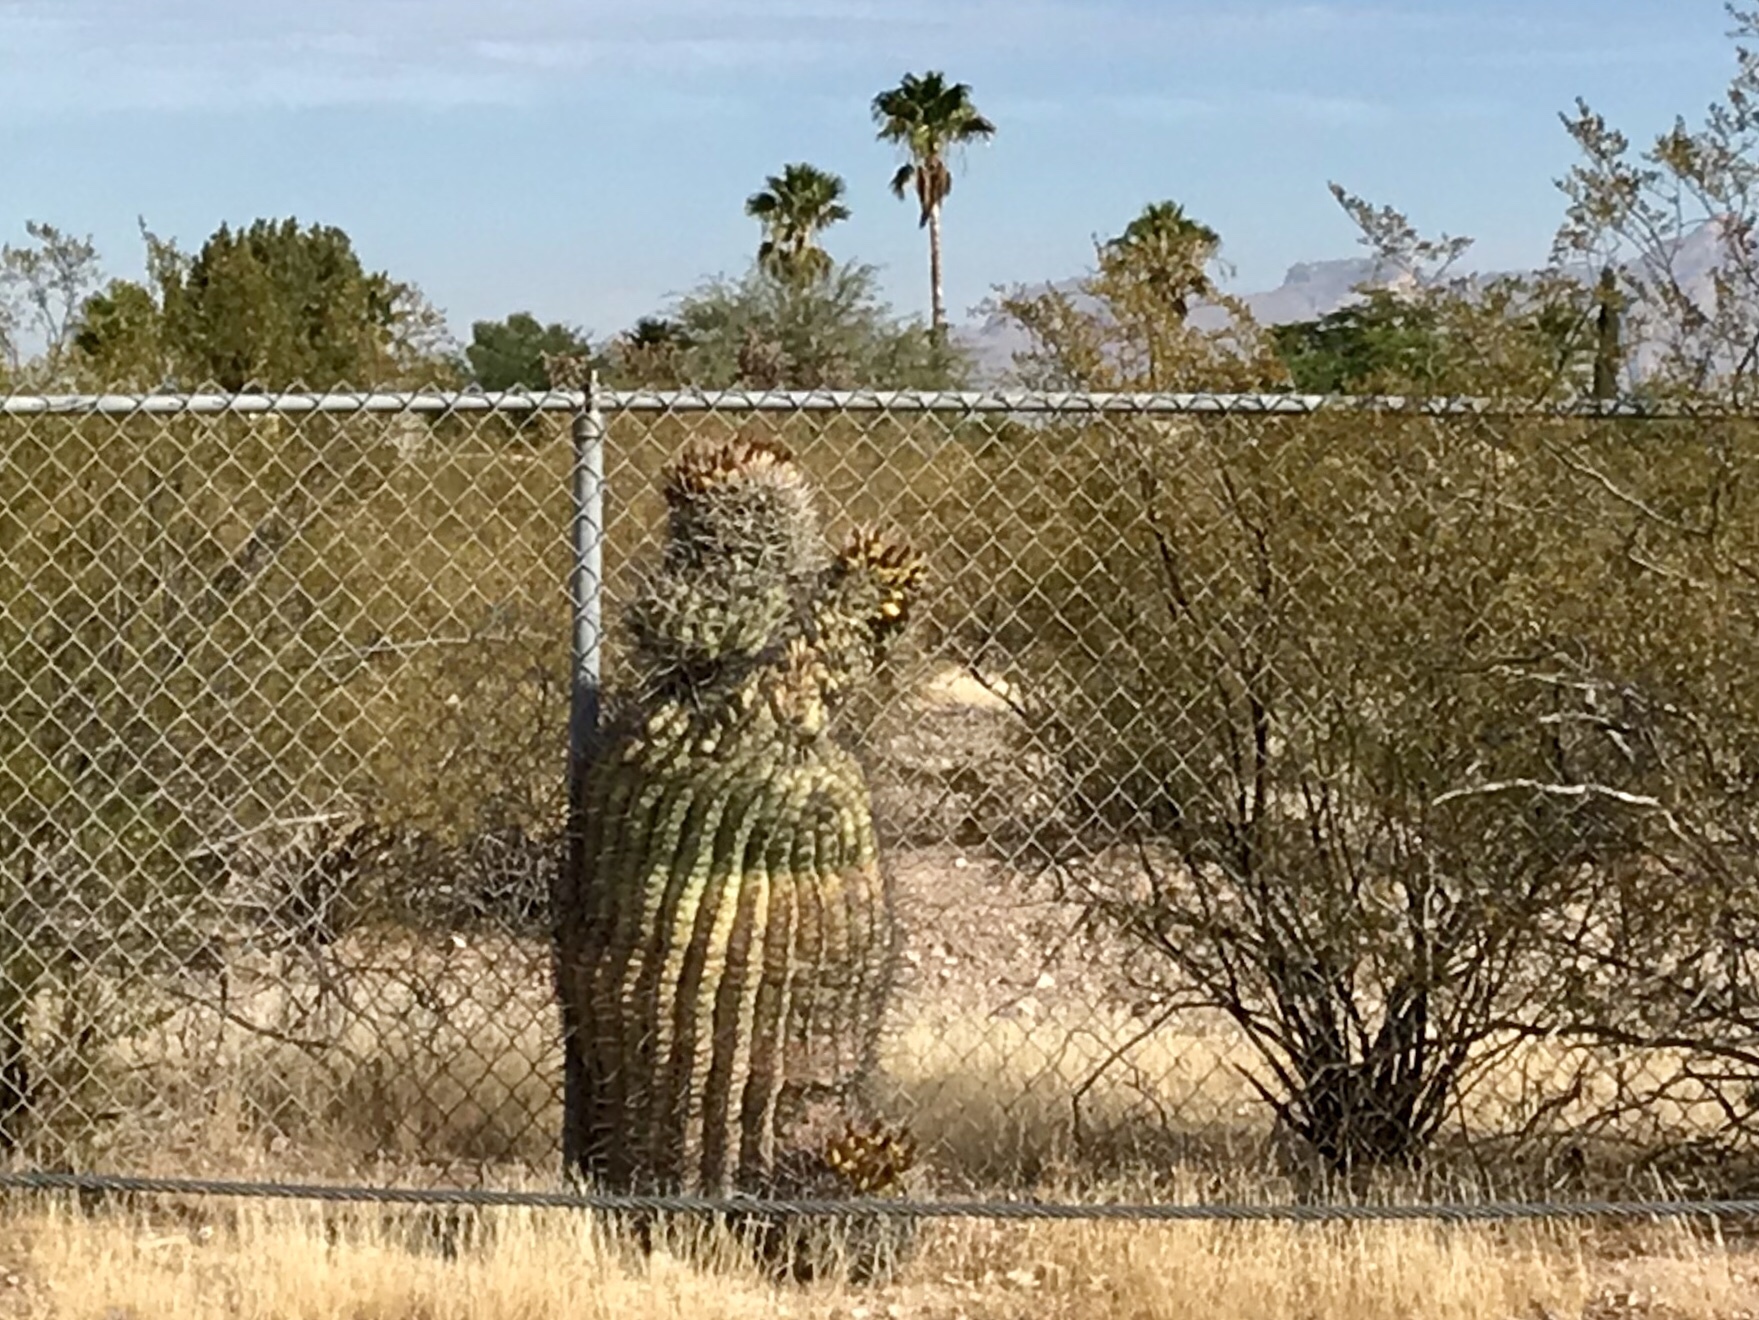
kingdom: Plantae
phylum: Tracheophyta
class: Magnoliopsida
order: Caryophyllales
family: Cactaceae
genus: Ferocactus
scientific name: Ferocactus wislizeni
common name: Candy barrel cactus
